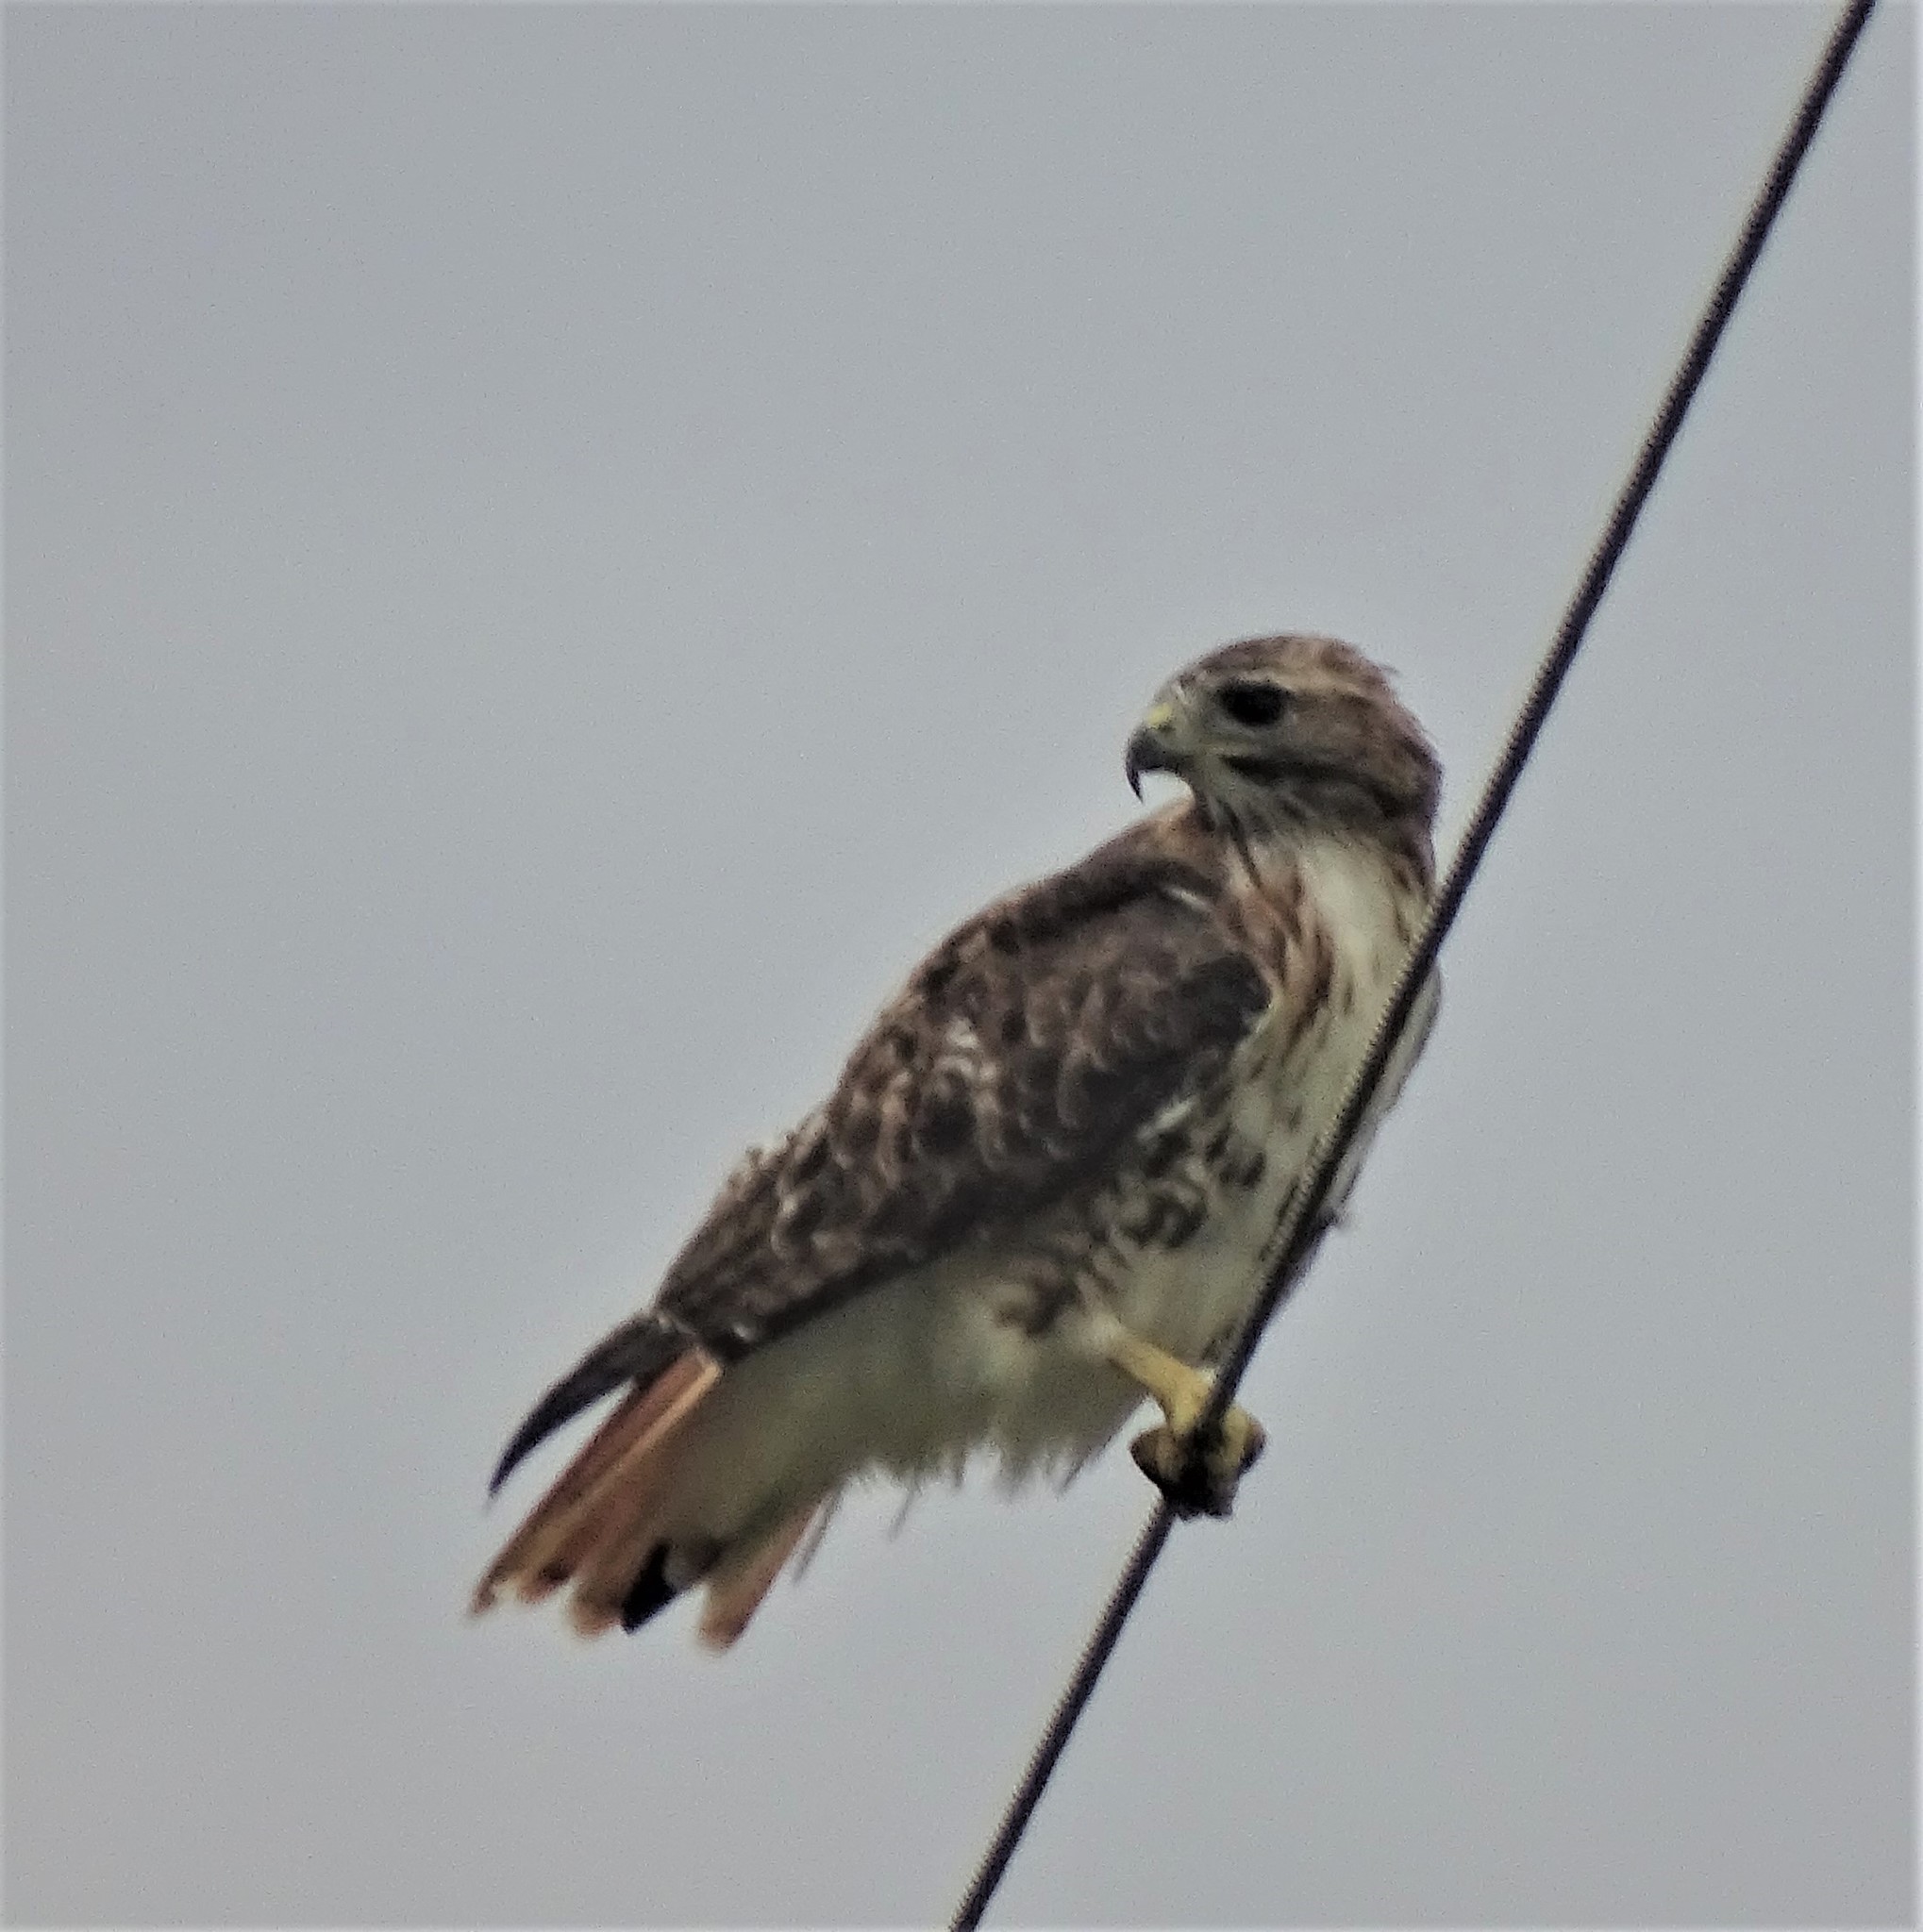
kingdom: Animalia
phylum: Chordata
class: Aves
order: Accipitriformes
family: Accipitridae
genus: Buteo
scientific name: Buteo jamaicensis
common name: Red-tailed hawk
